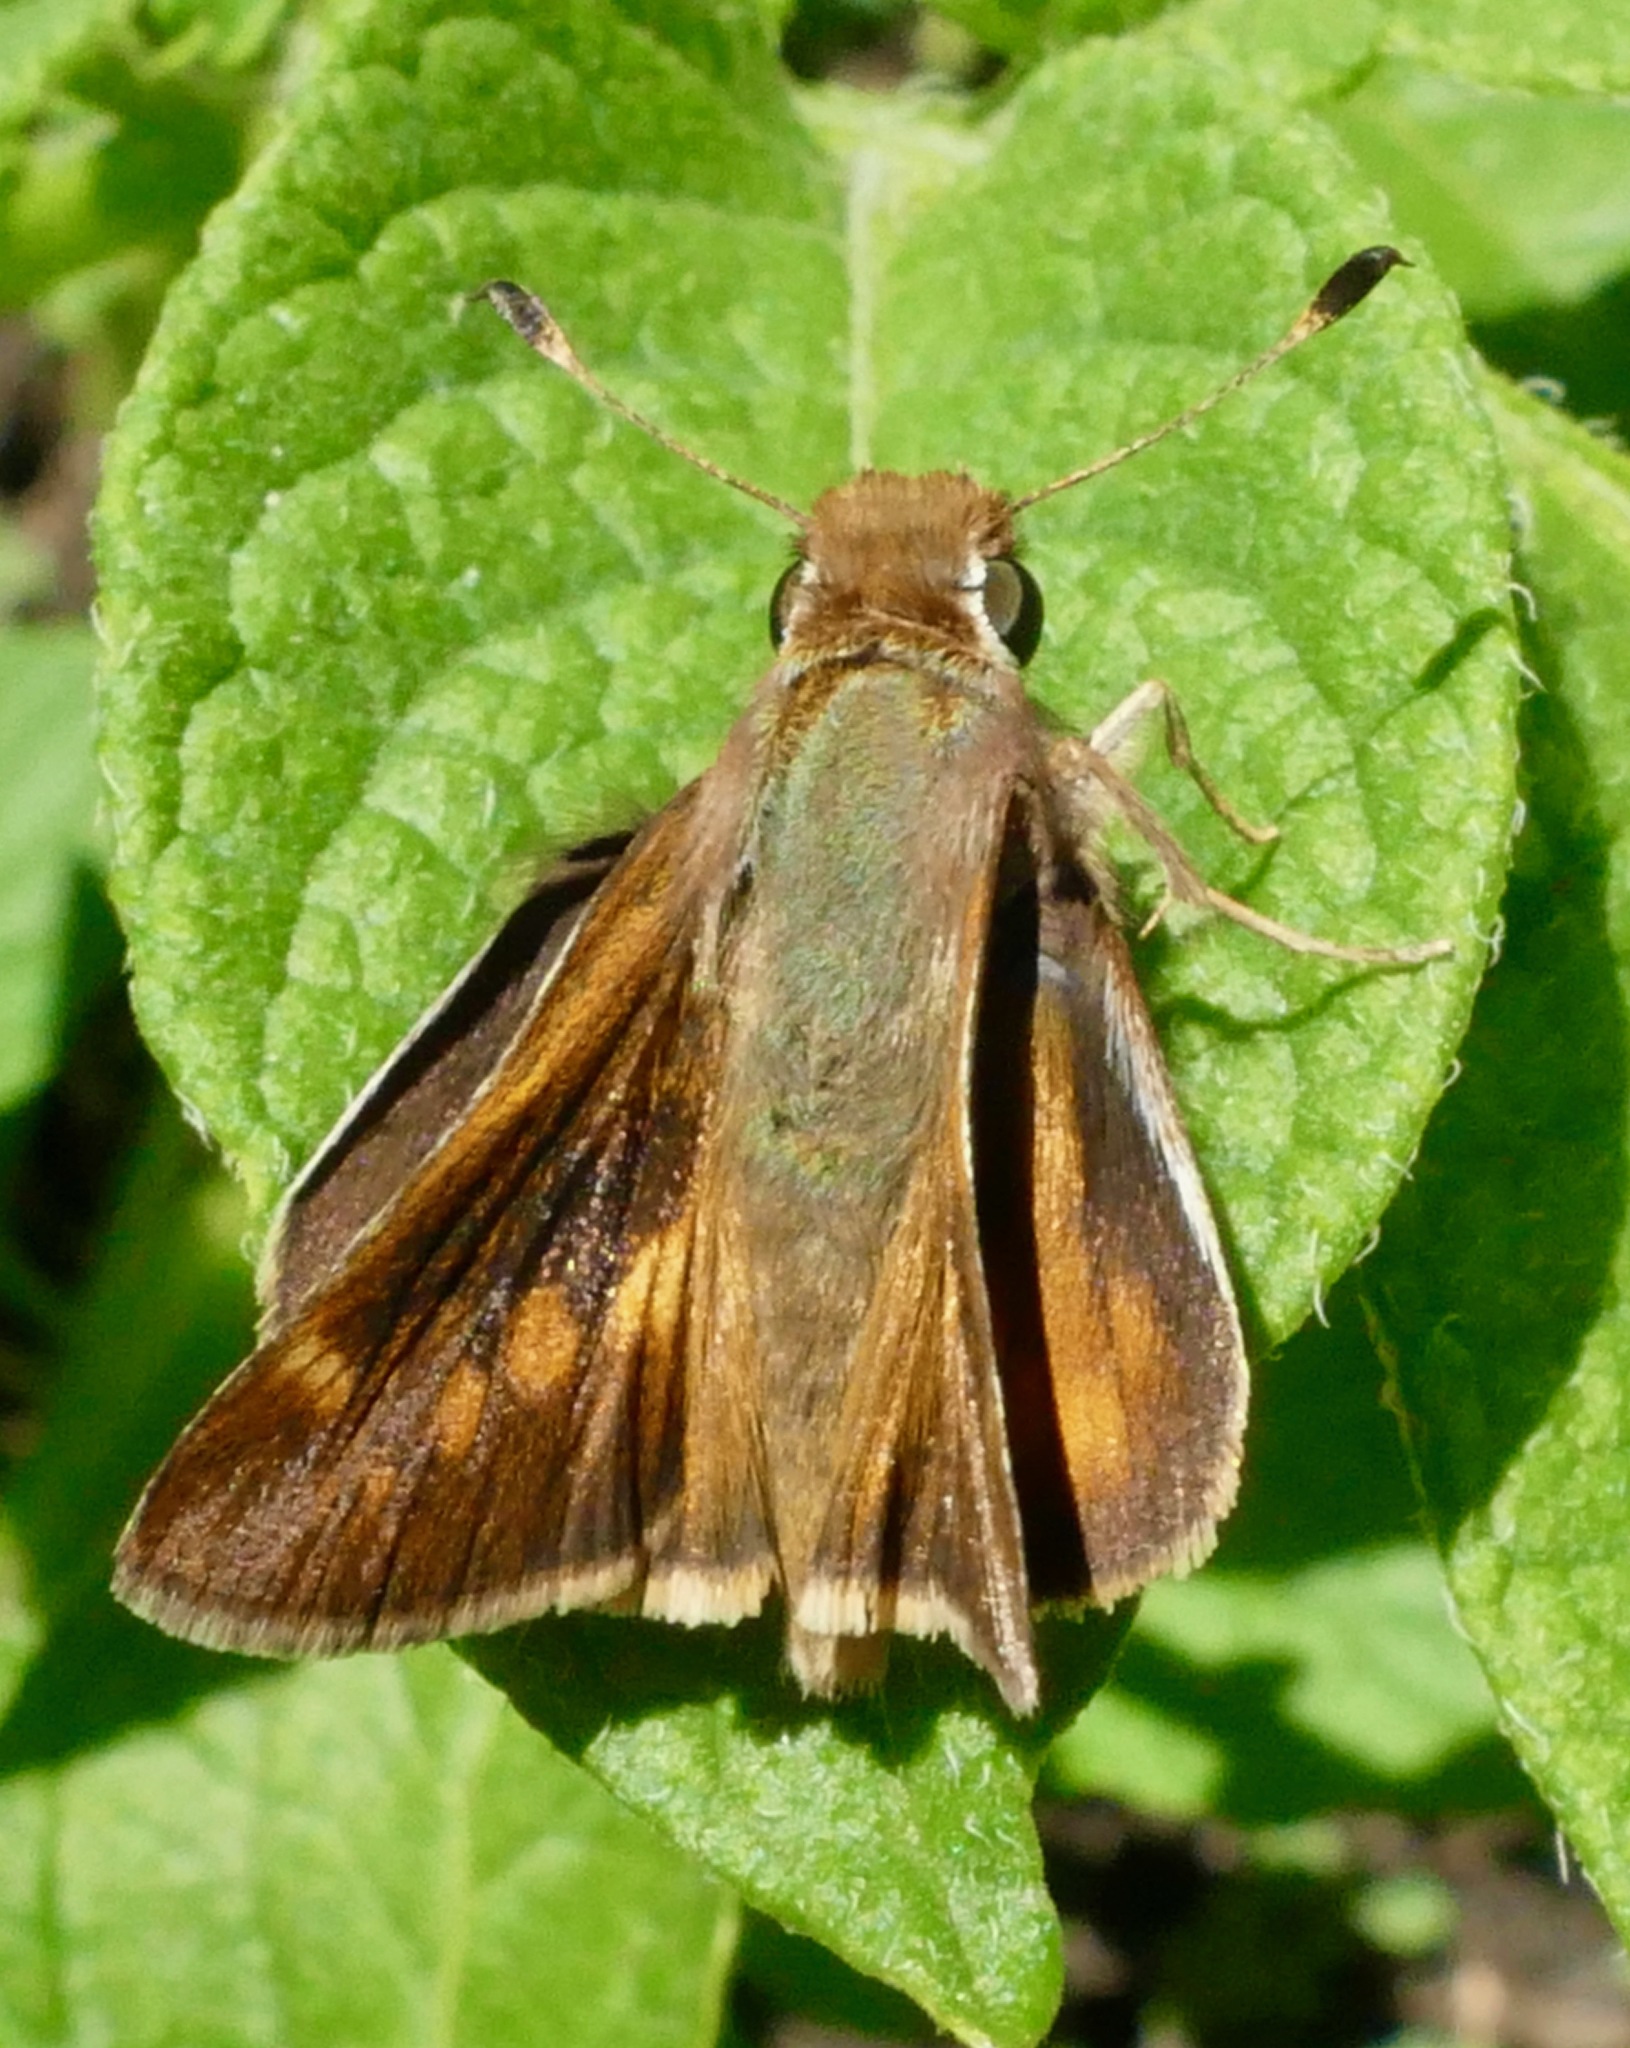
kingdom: Animalia
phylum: Arthropoda
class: Insecta
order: Lepidoptera
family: Hesperiidae
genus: Lon
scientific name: Lon melane
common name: Umber skipper
